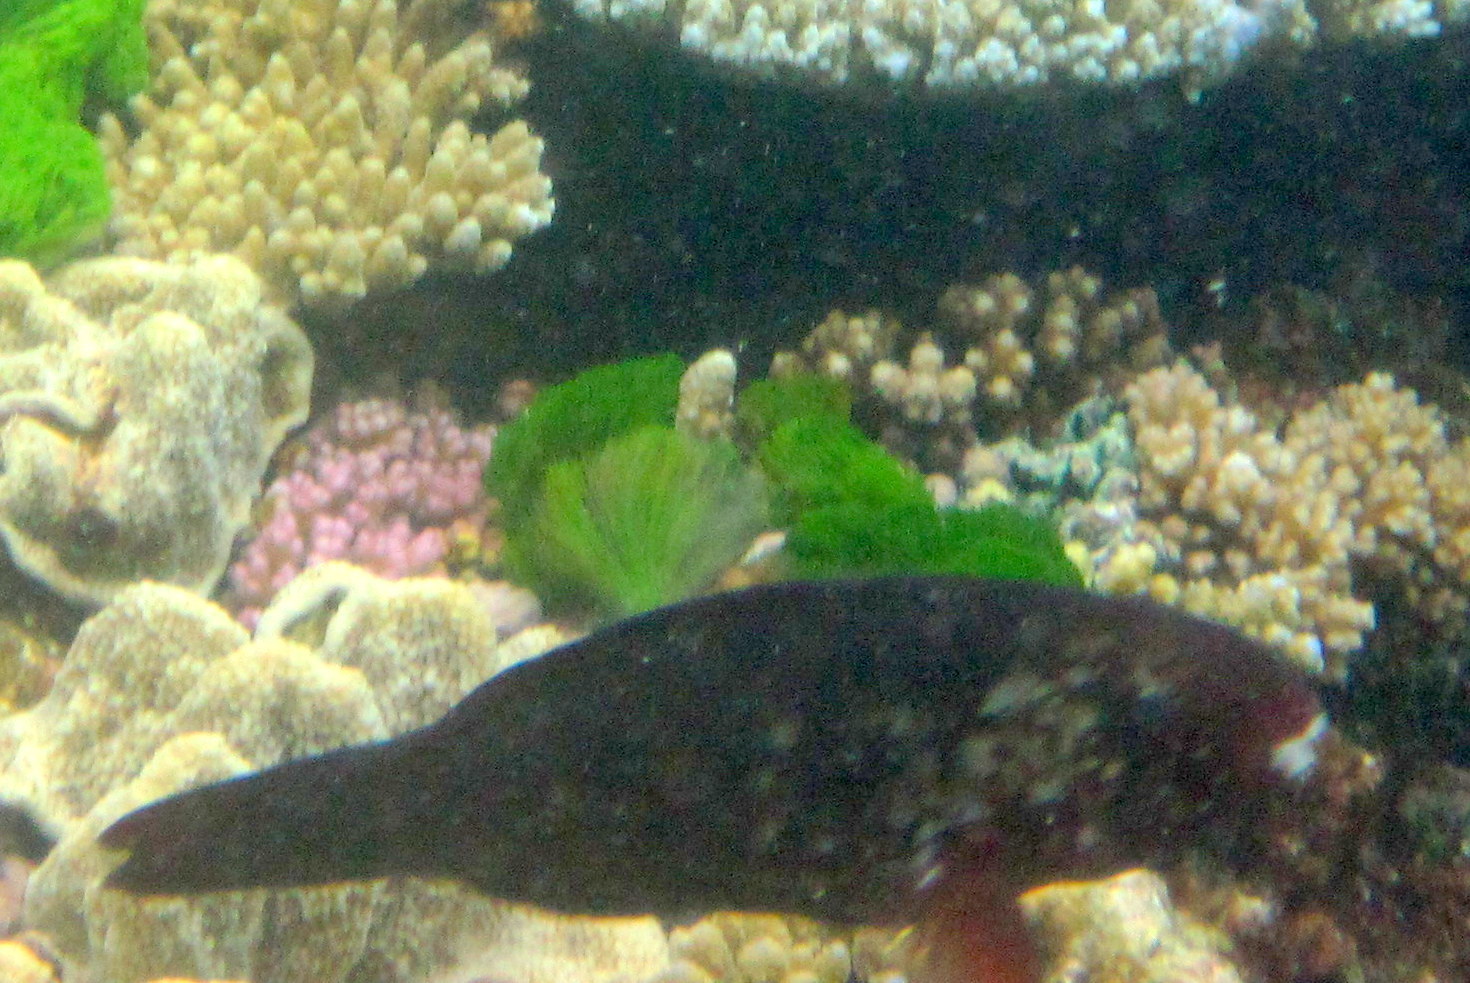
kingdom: Animalia
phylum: Chordata
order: Perciformes
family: Scaridae
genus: Scarus
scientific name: Scarus spinus
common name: Greensnout parrotfish
